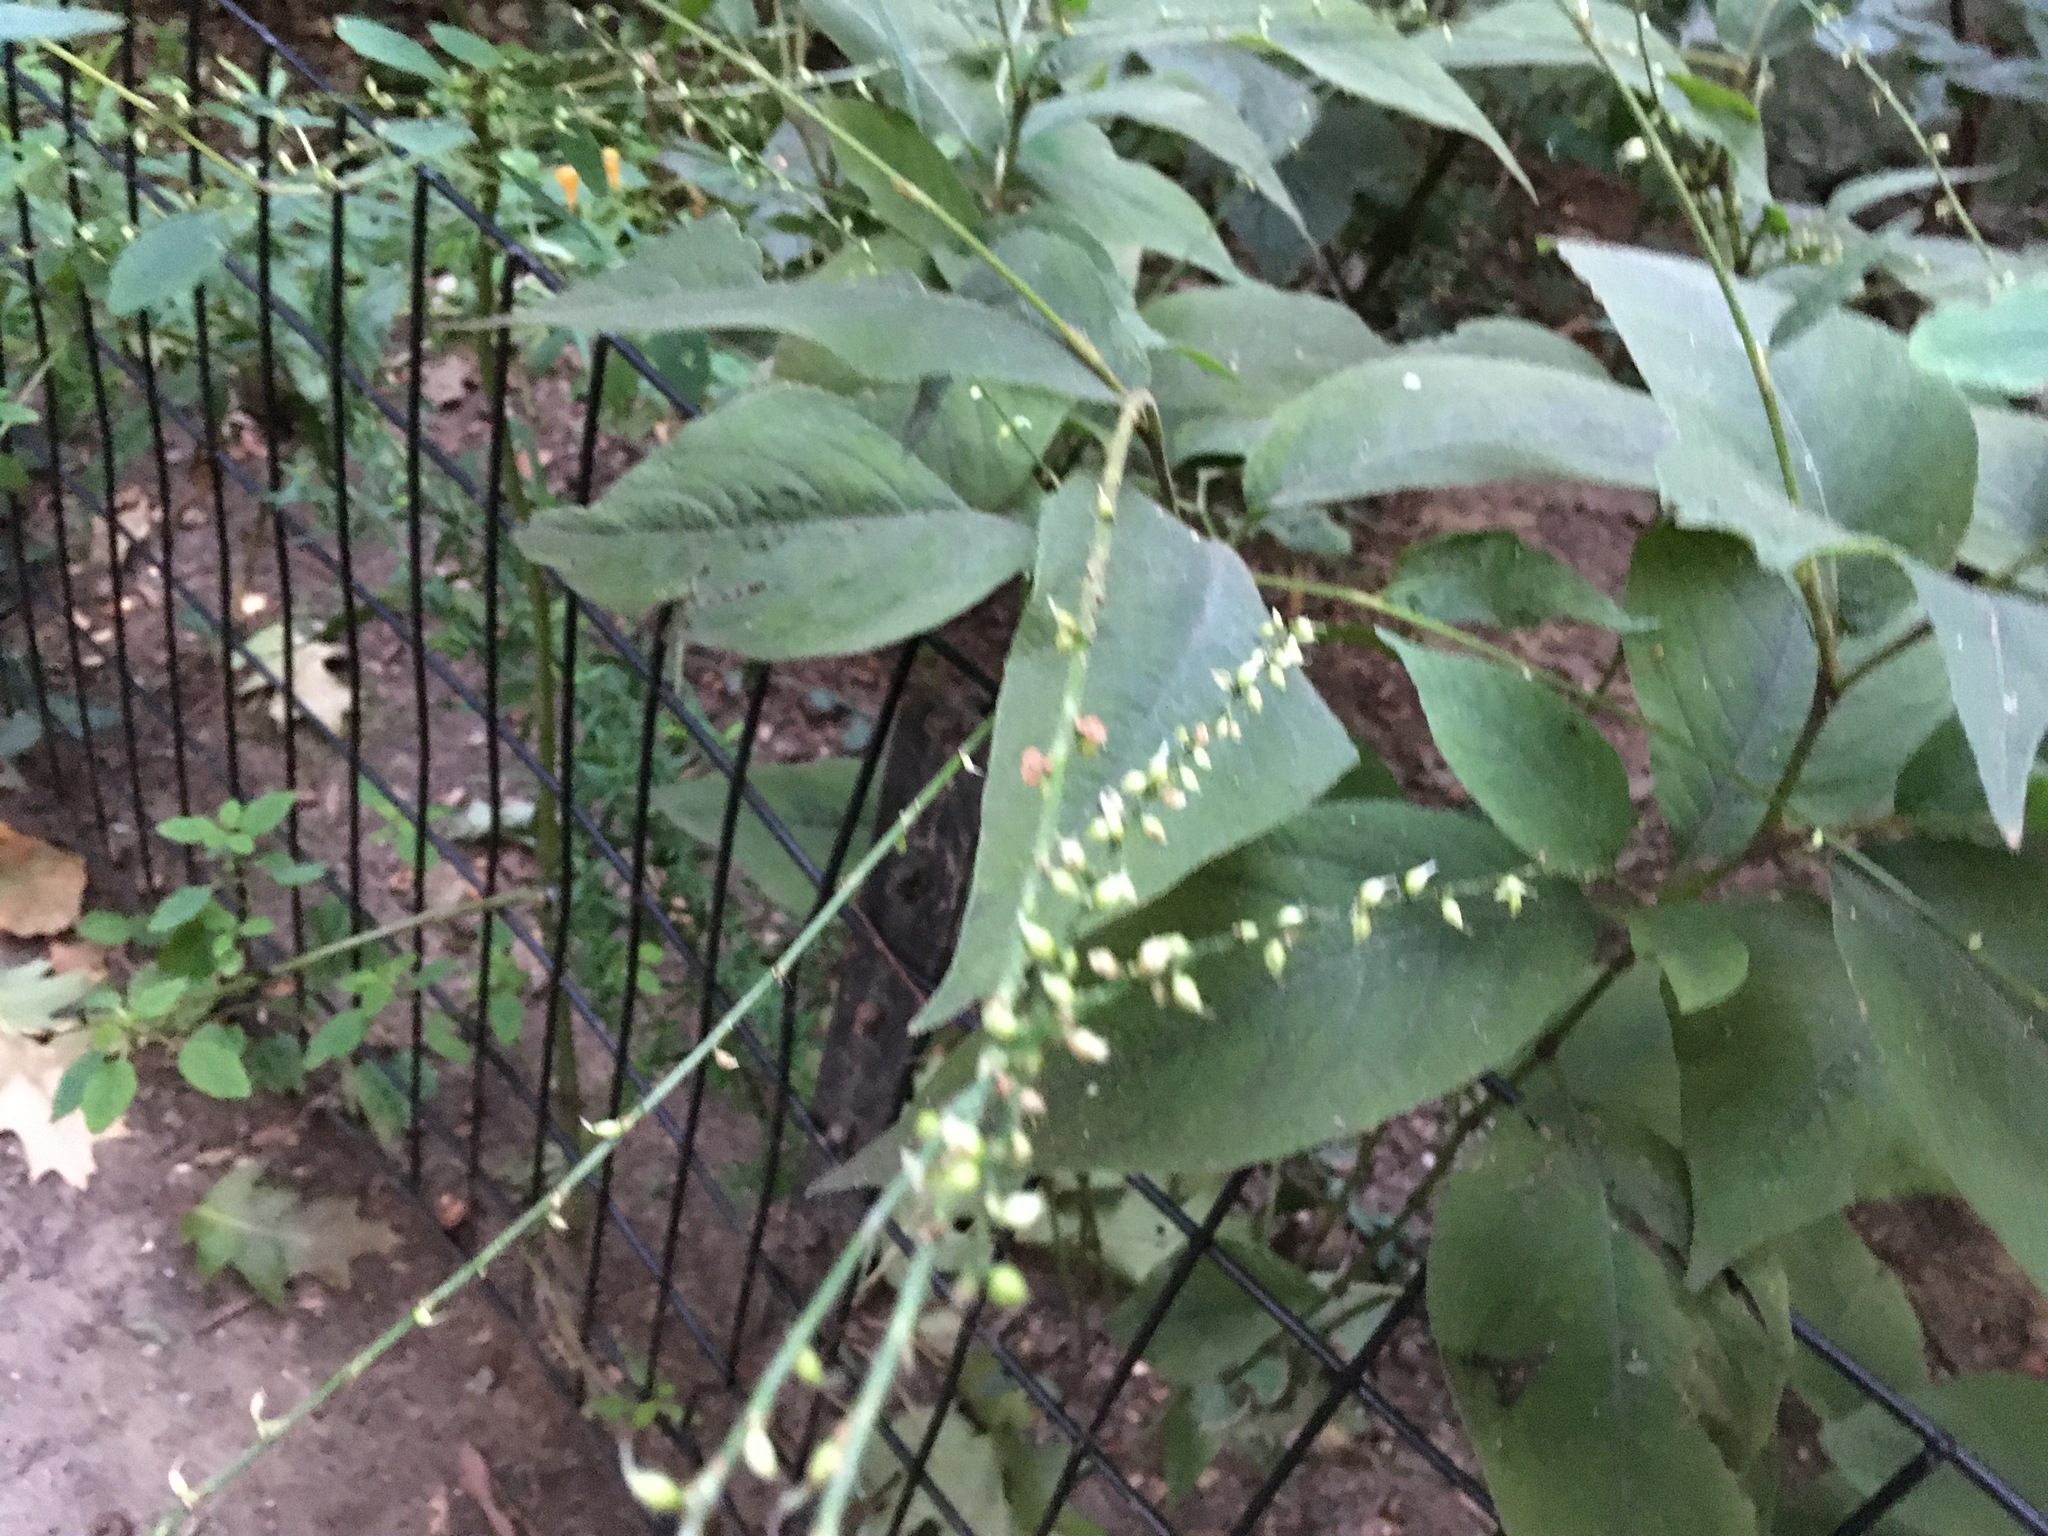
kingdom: Plantae
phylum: Tracheophyta
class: Magnoliopsida
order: Caryophyllales
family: Polygonaceae
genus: Persicaria
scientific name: Persicaria virginiana
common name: Jumpseed
